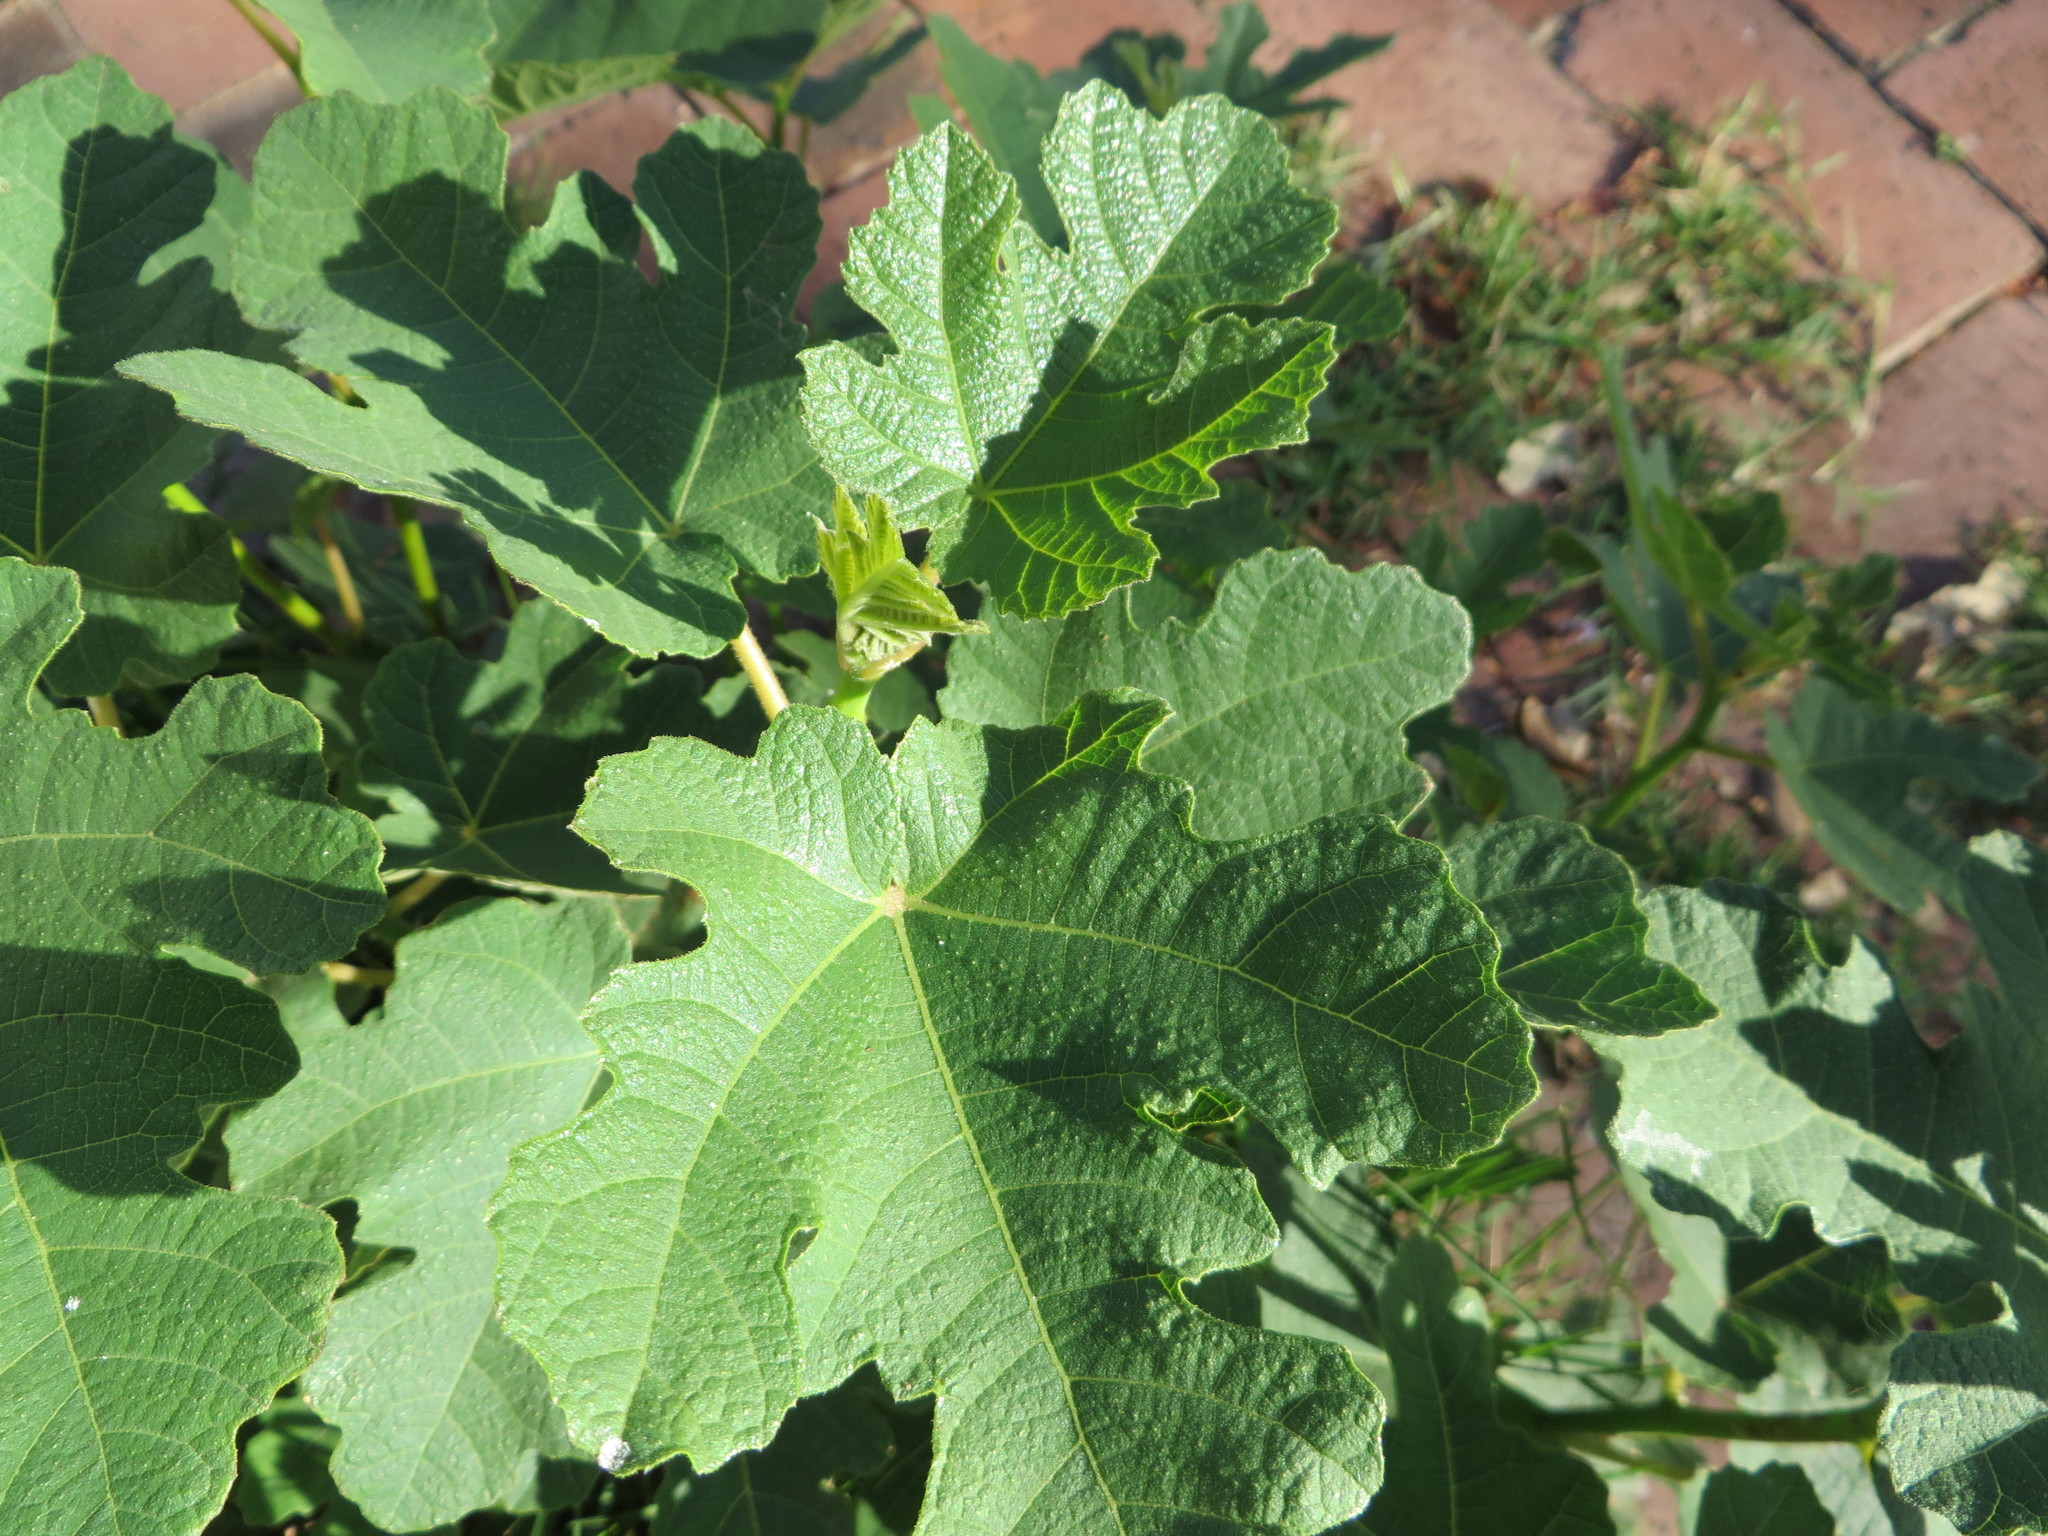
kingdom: Plantae
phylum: Tracheophyta
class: Magnoliopsida
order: Rosales
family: Moraceae
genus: Ficus
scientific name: Ficus carica
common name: Fig
